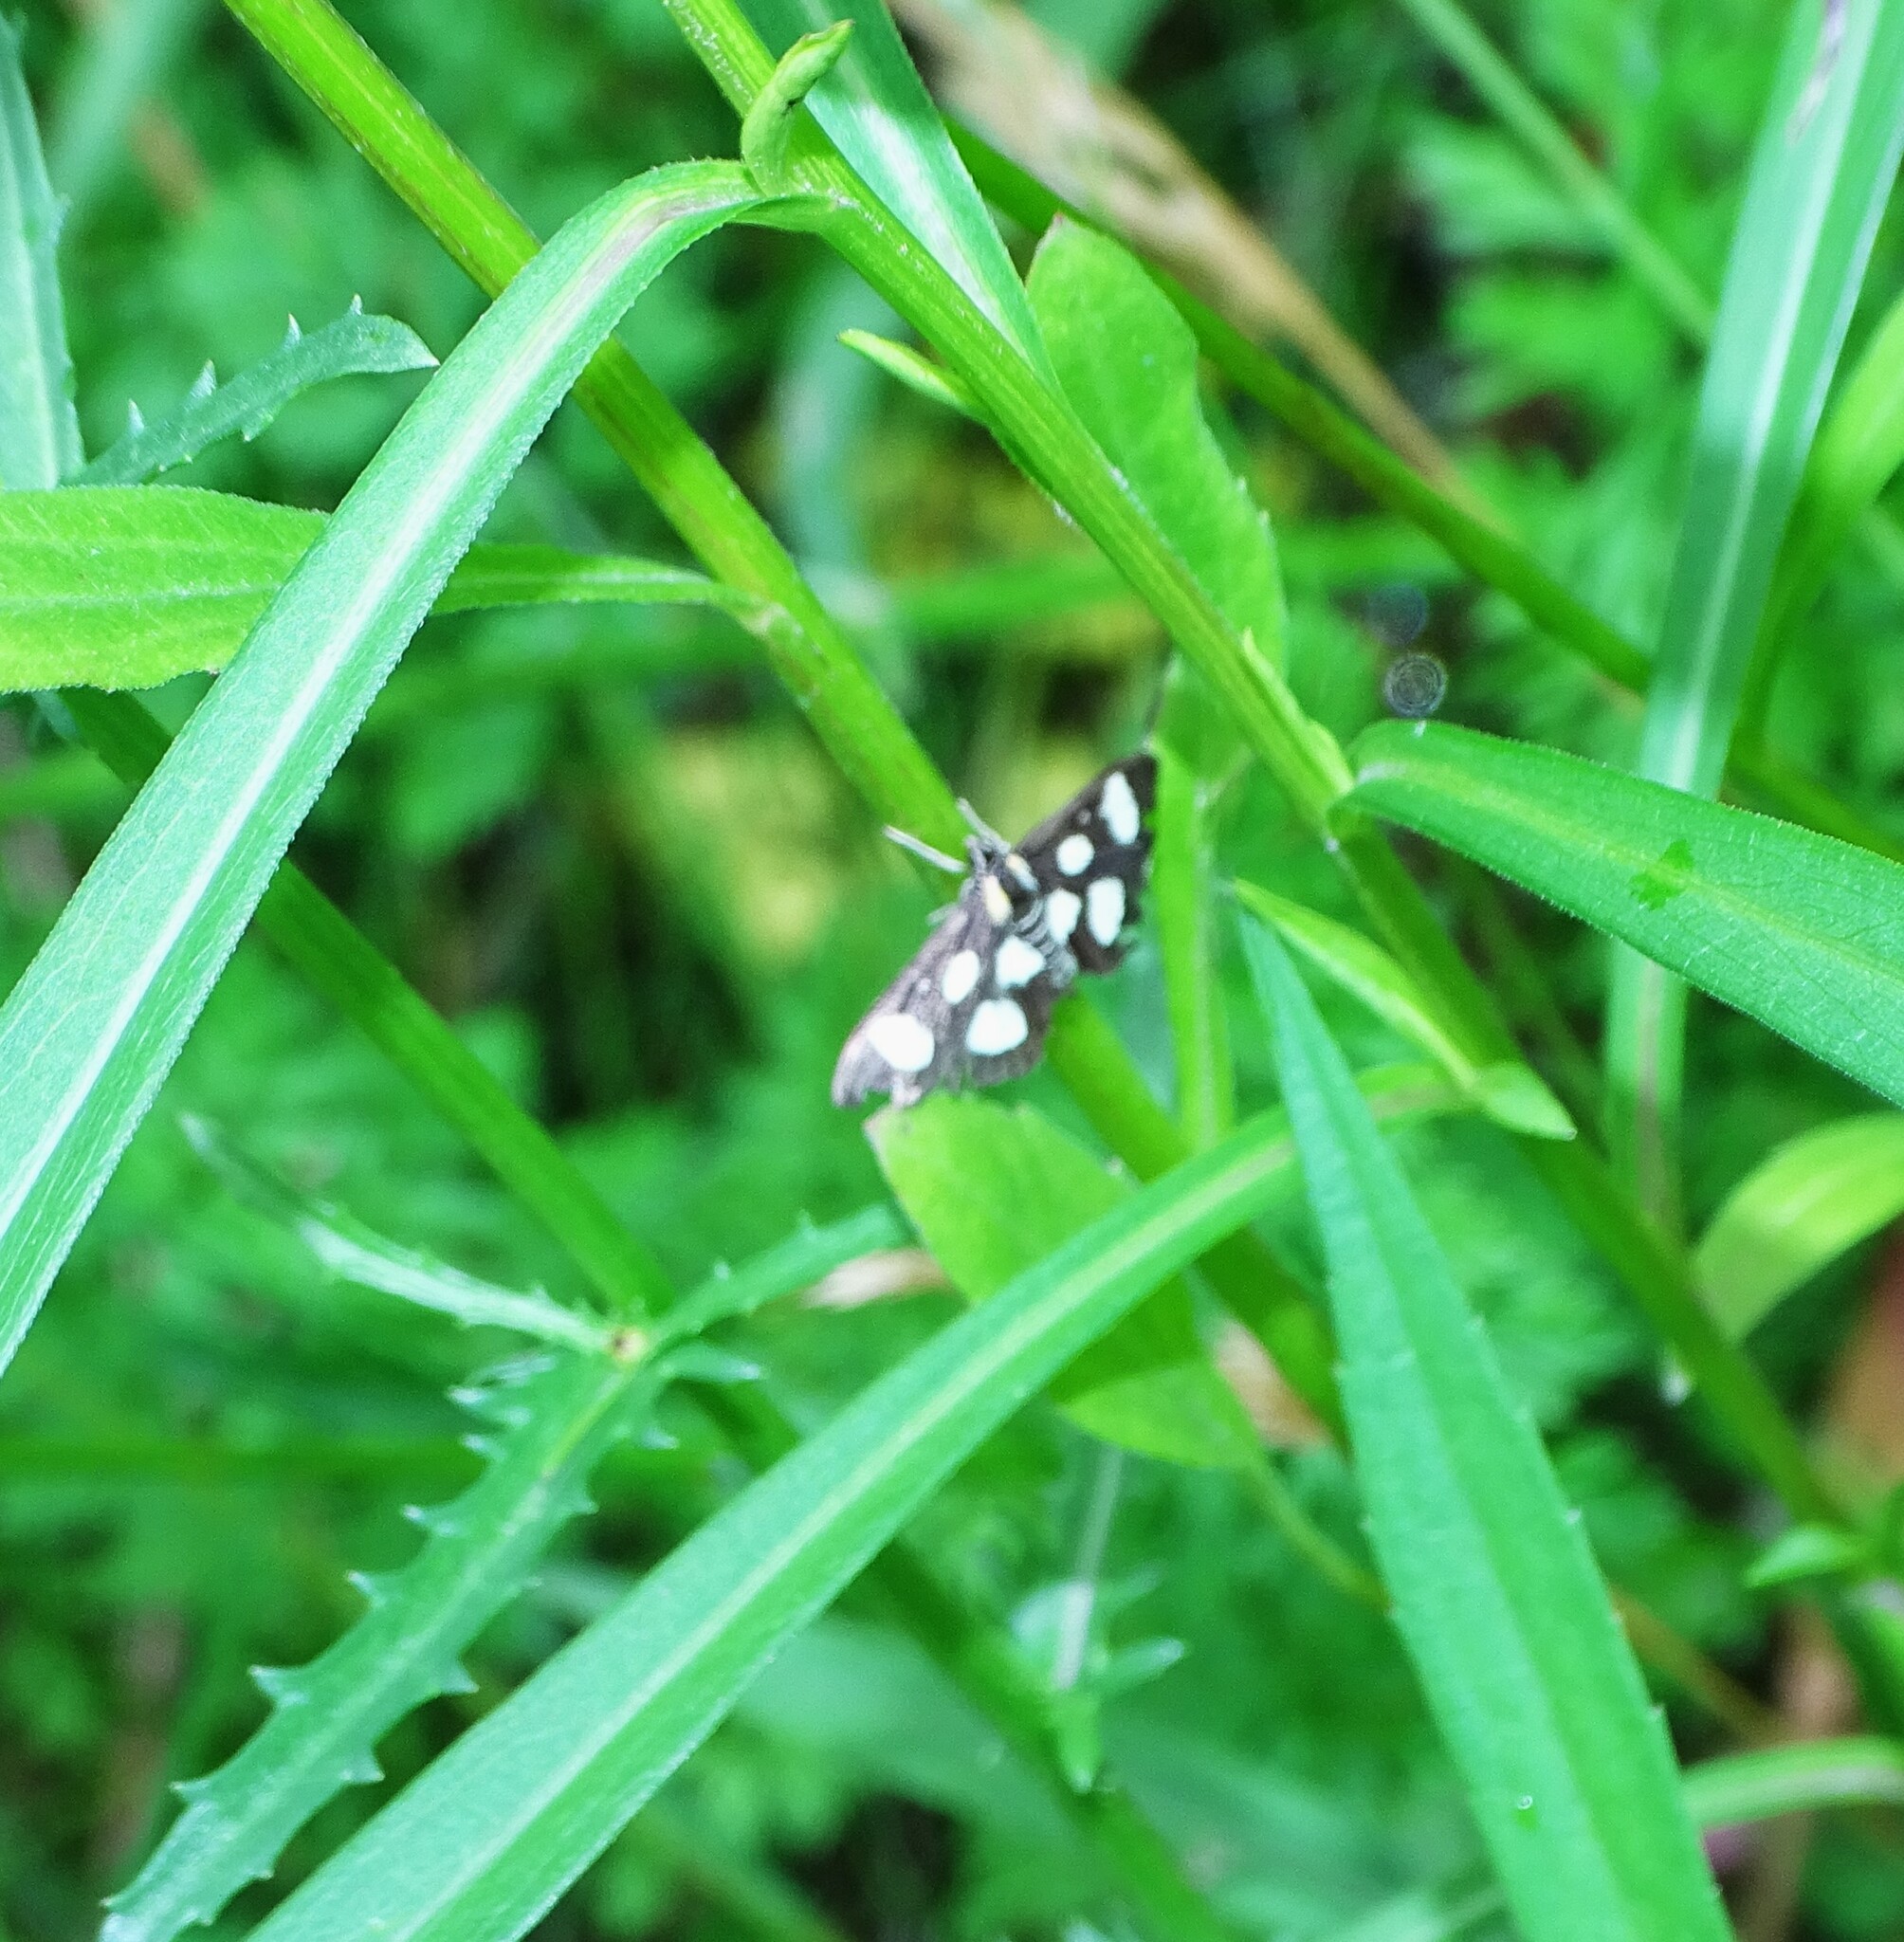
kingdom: Animalia
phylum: Arthropoda
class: Insecta
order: Lepidoptera
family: Crambidae
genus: Anania
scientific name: Anania funebris
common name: White-spotted sable moth
